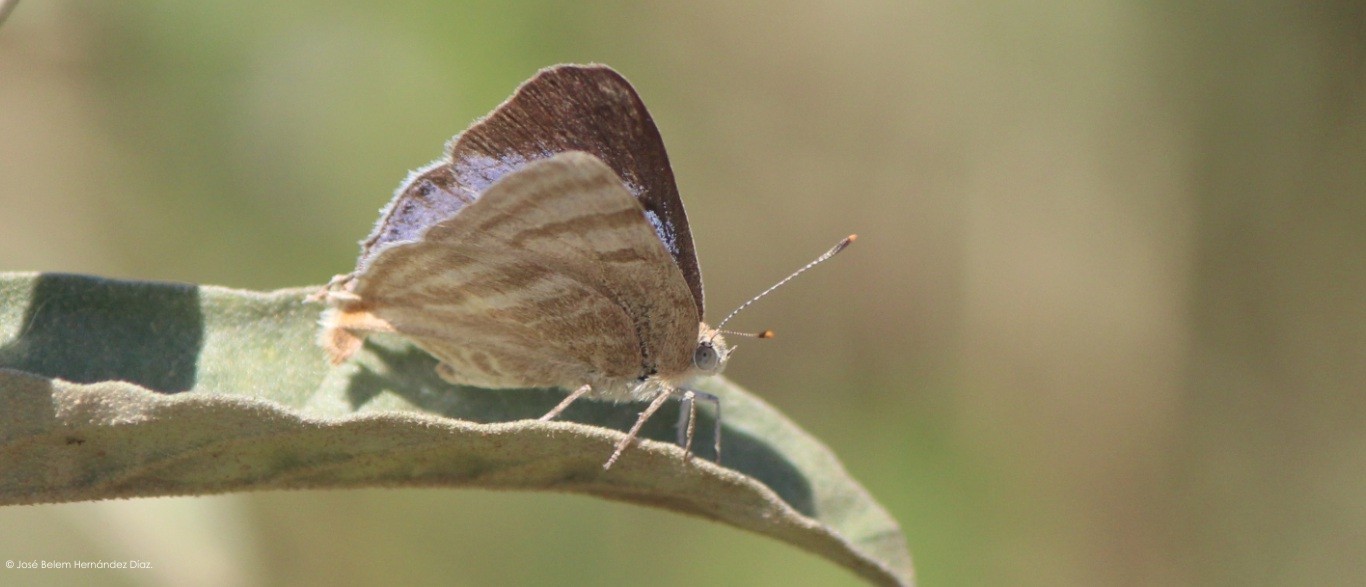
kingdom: Animalia
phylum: Arthropoda
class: Insecta
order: Lepidoptera
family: Lycaenidae
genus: Dolymorpha
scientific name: Dolymorpha jada
